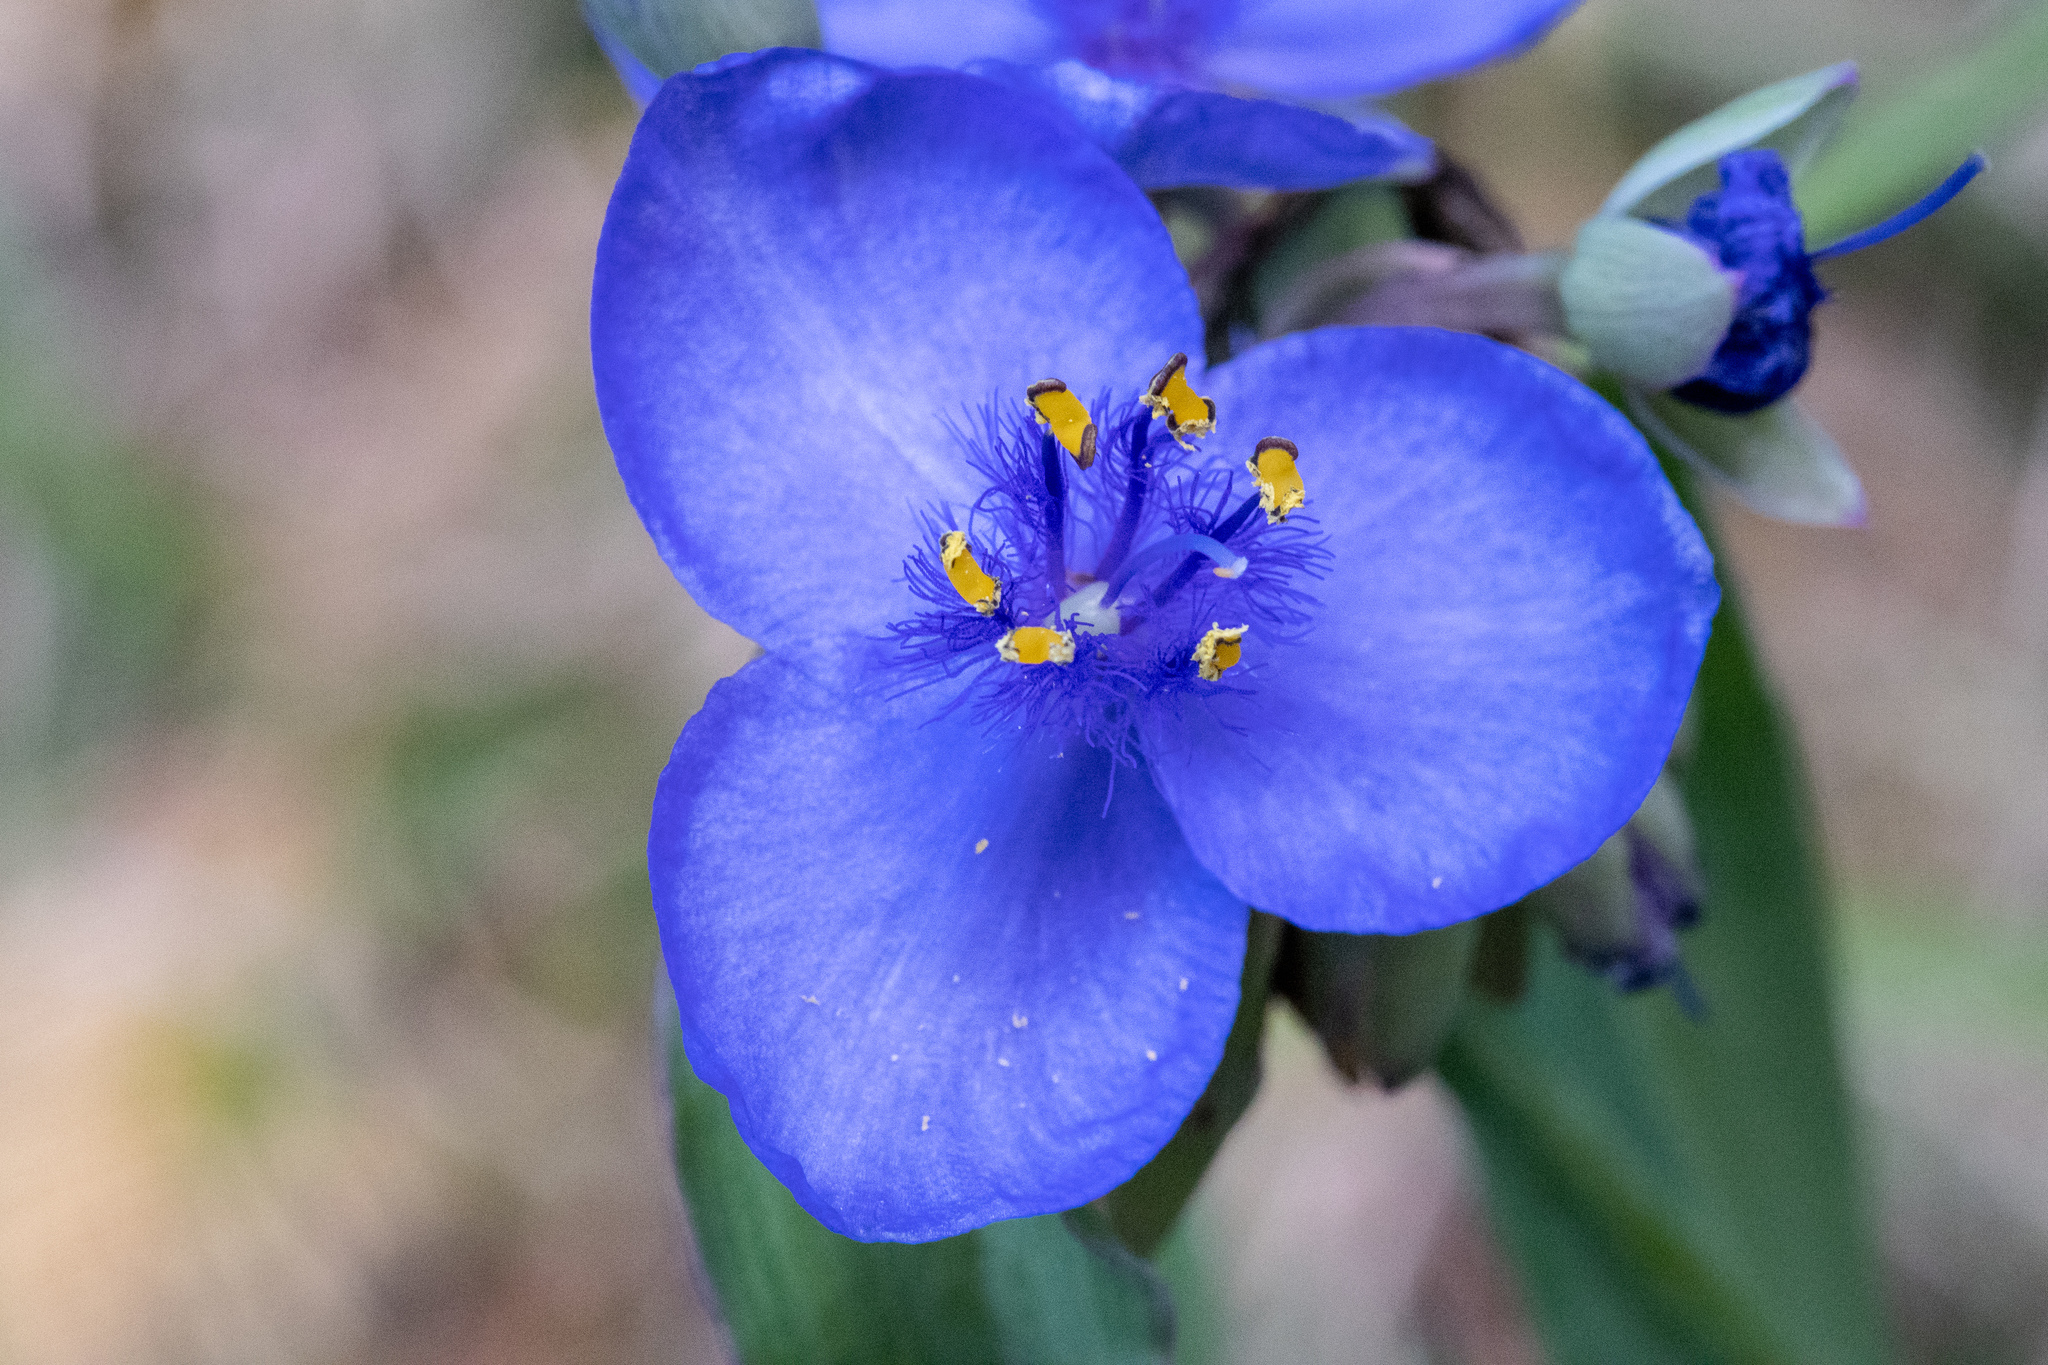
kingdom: Plantae
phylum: Tracheophyta
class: Liliopsida
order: Commelinales
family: Commelinaceae
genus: Tradescantia
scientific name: Tradescantia ohiensis
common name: Ohio spiderwort
